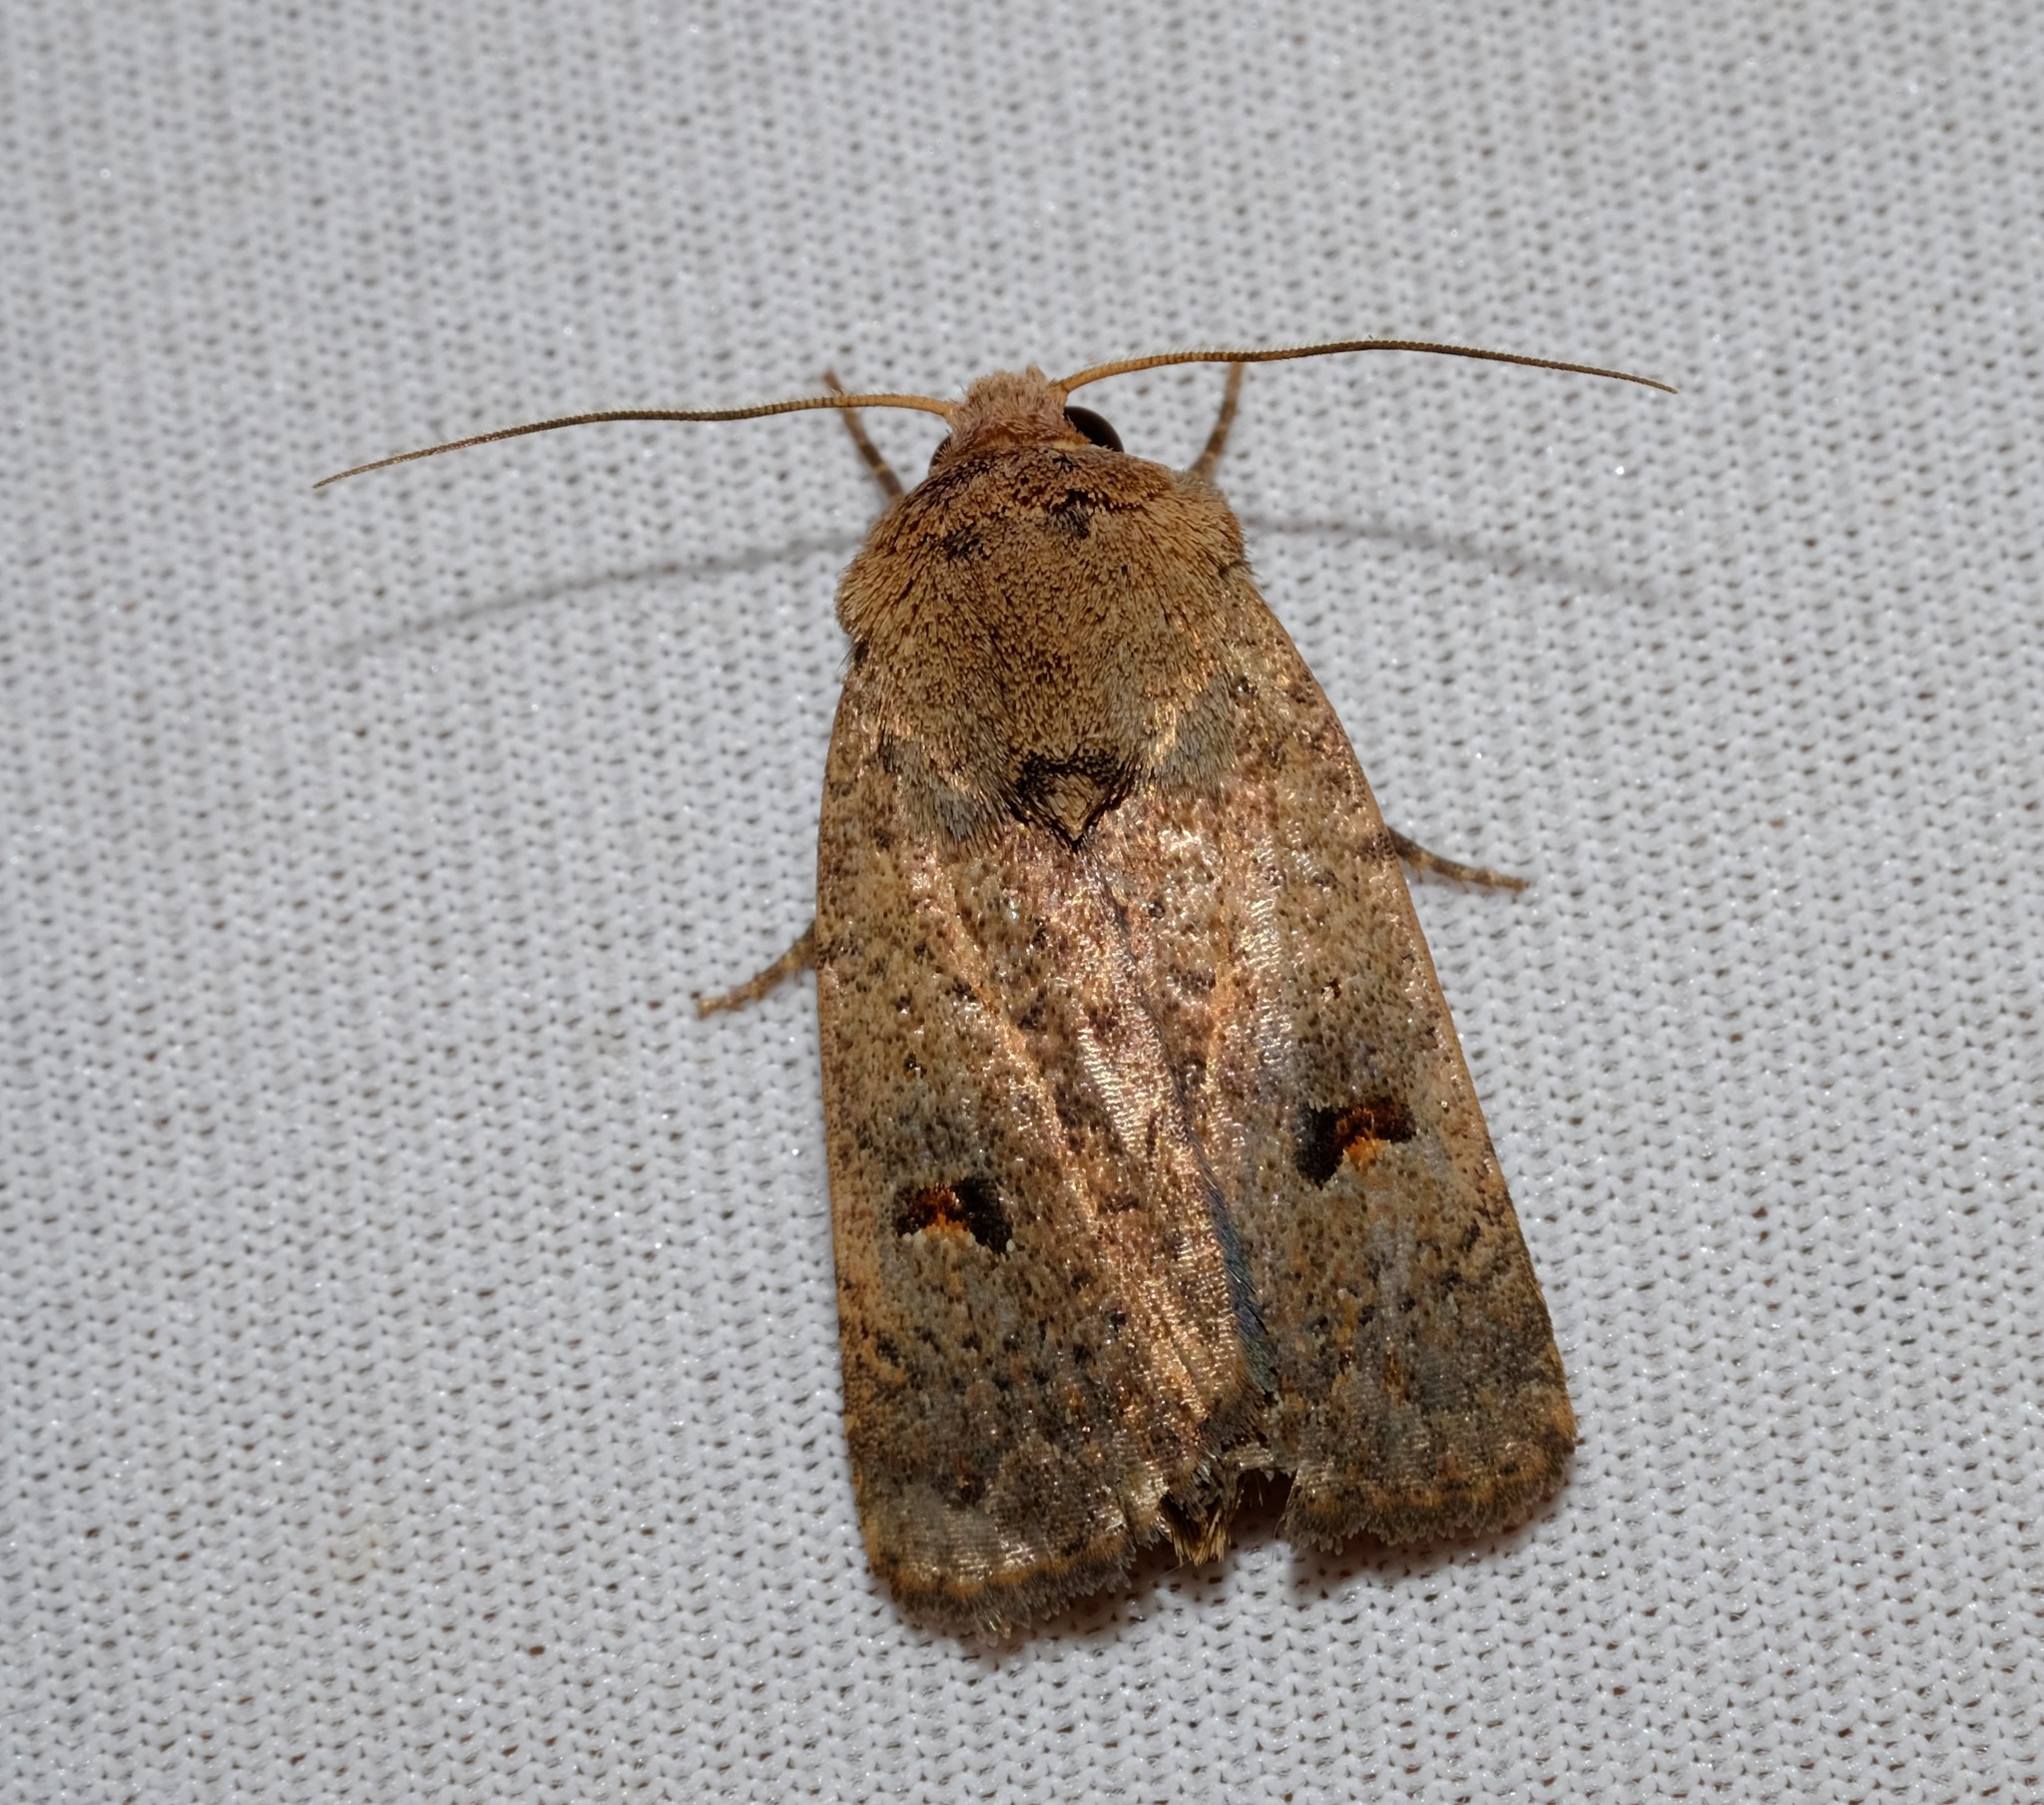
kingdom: Animalia
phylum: Arthropoda
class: Insecta
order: Lepidoptera
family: Noctuidae
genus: Proteuxoa
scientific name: Proteuxoa hypochalchis
